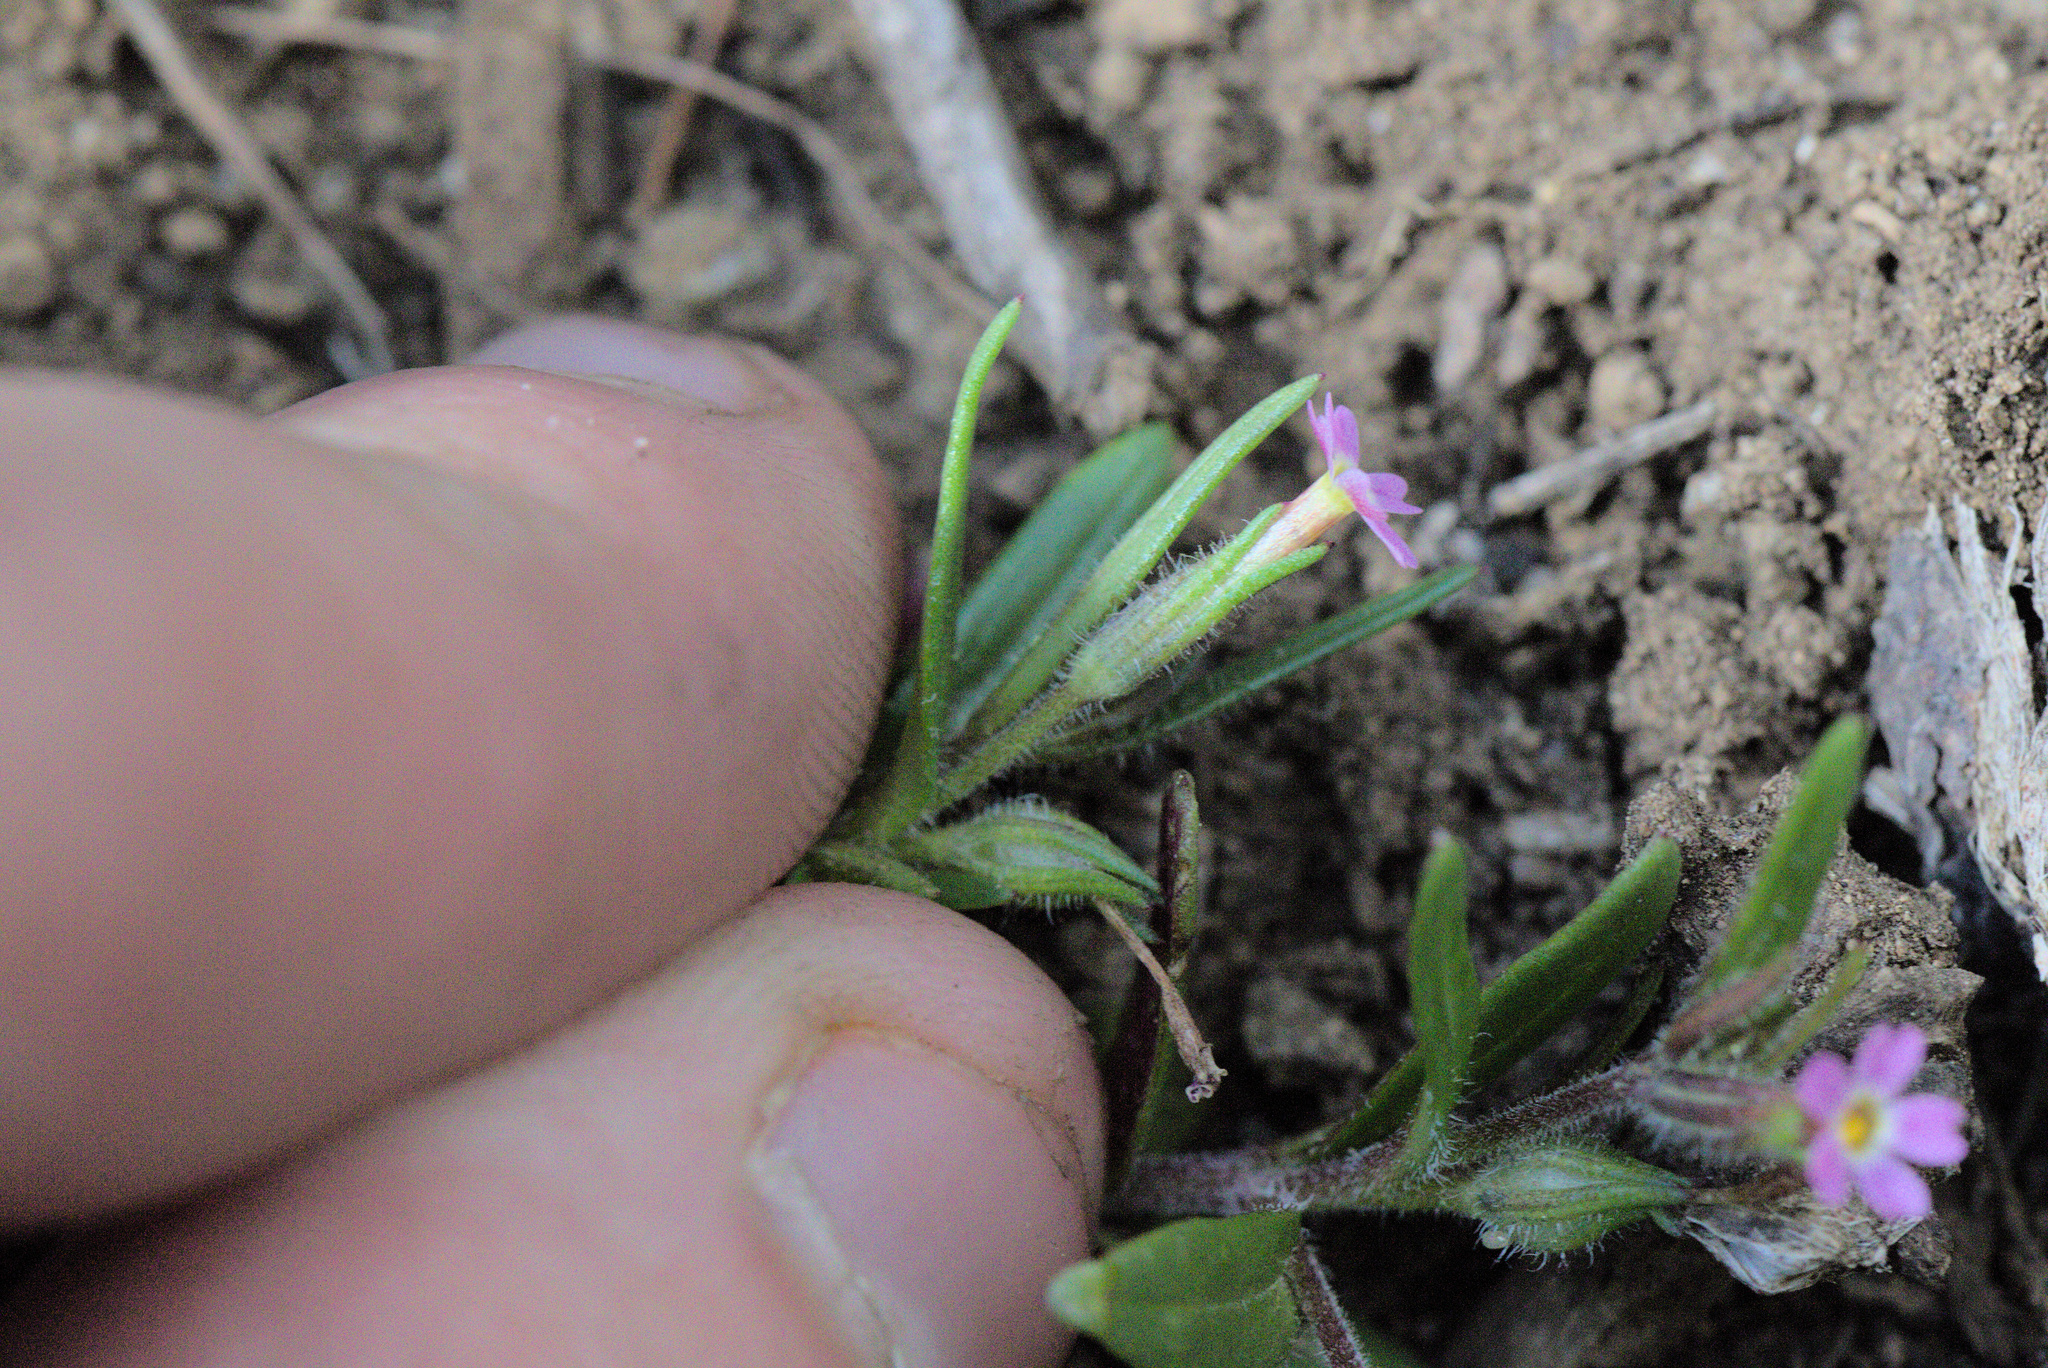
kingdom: Plantae
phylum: Tracheophyta
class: Magnoliopsida
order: Ericales
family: Polemoniaceae
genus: Phlox
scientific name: Phlox gracilis
